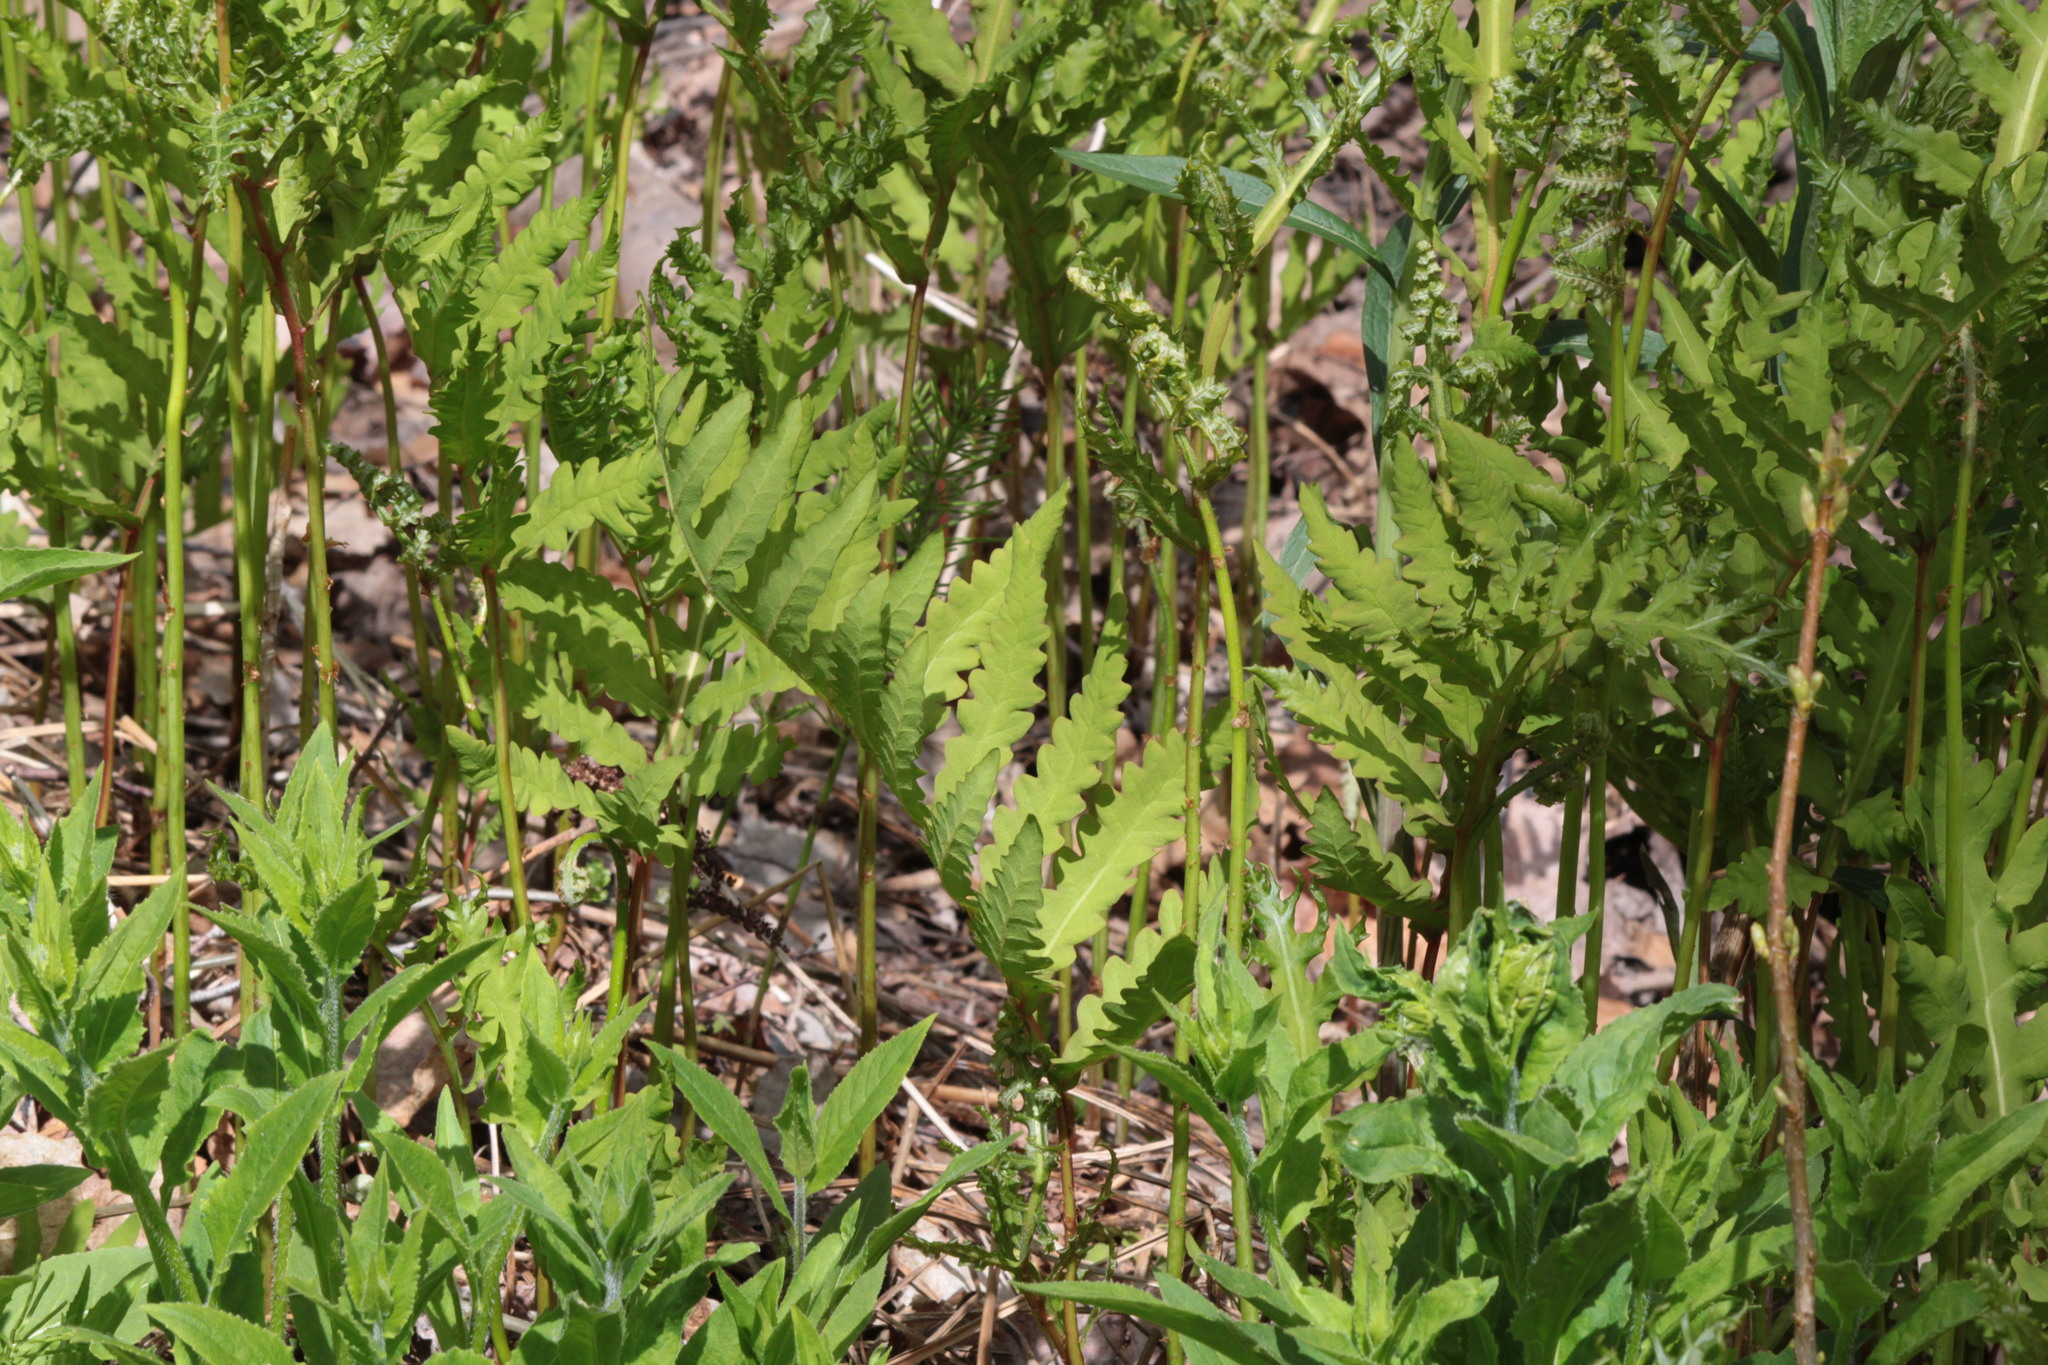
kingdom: Plantae
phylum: Tracheophyta
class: Polypodiopsida
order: Polypodiales
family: Onocleaceae
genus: Onoclea
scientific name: Onoclea sensibilis
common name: Sensitive fern
